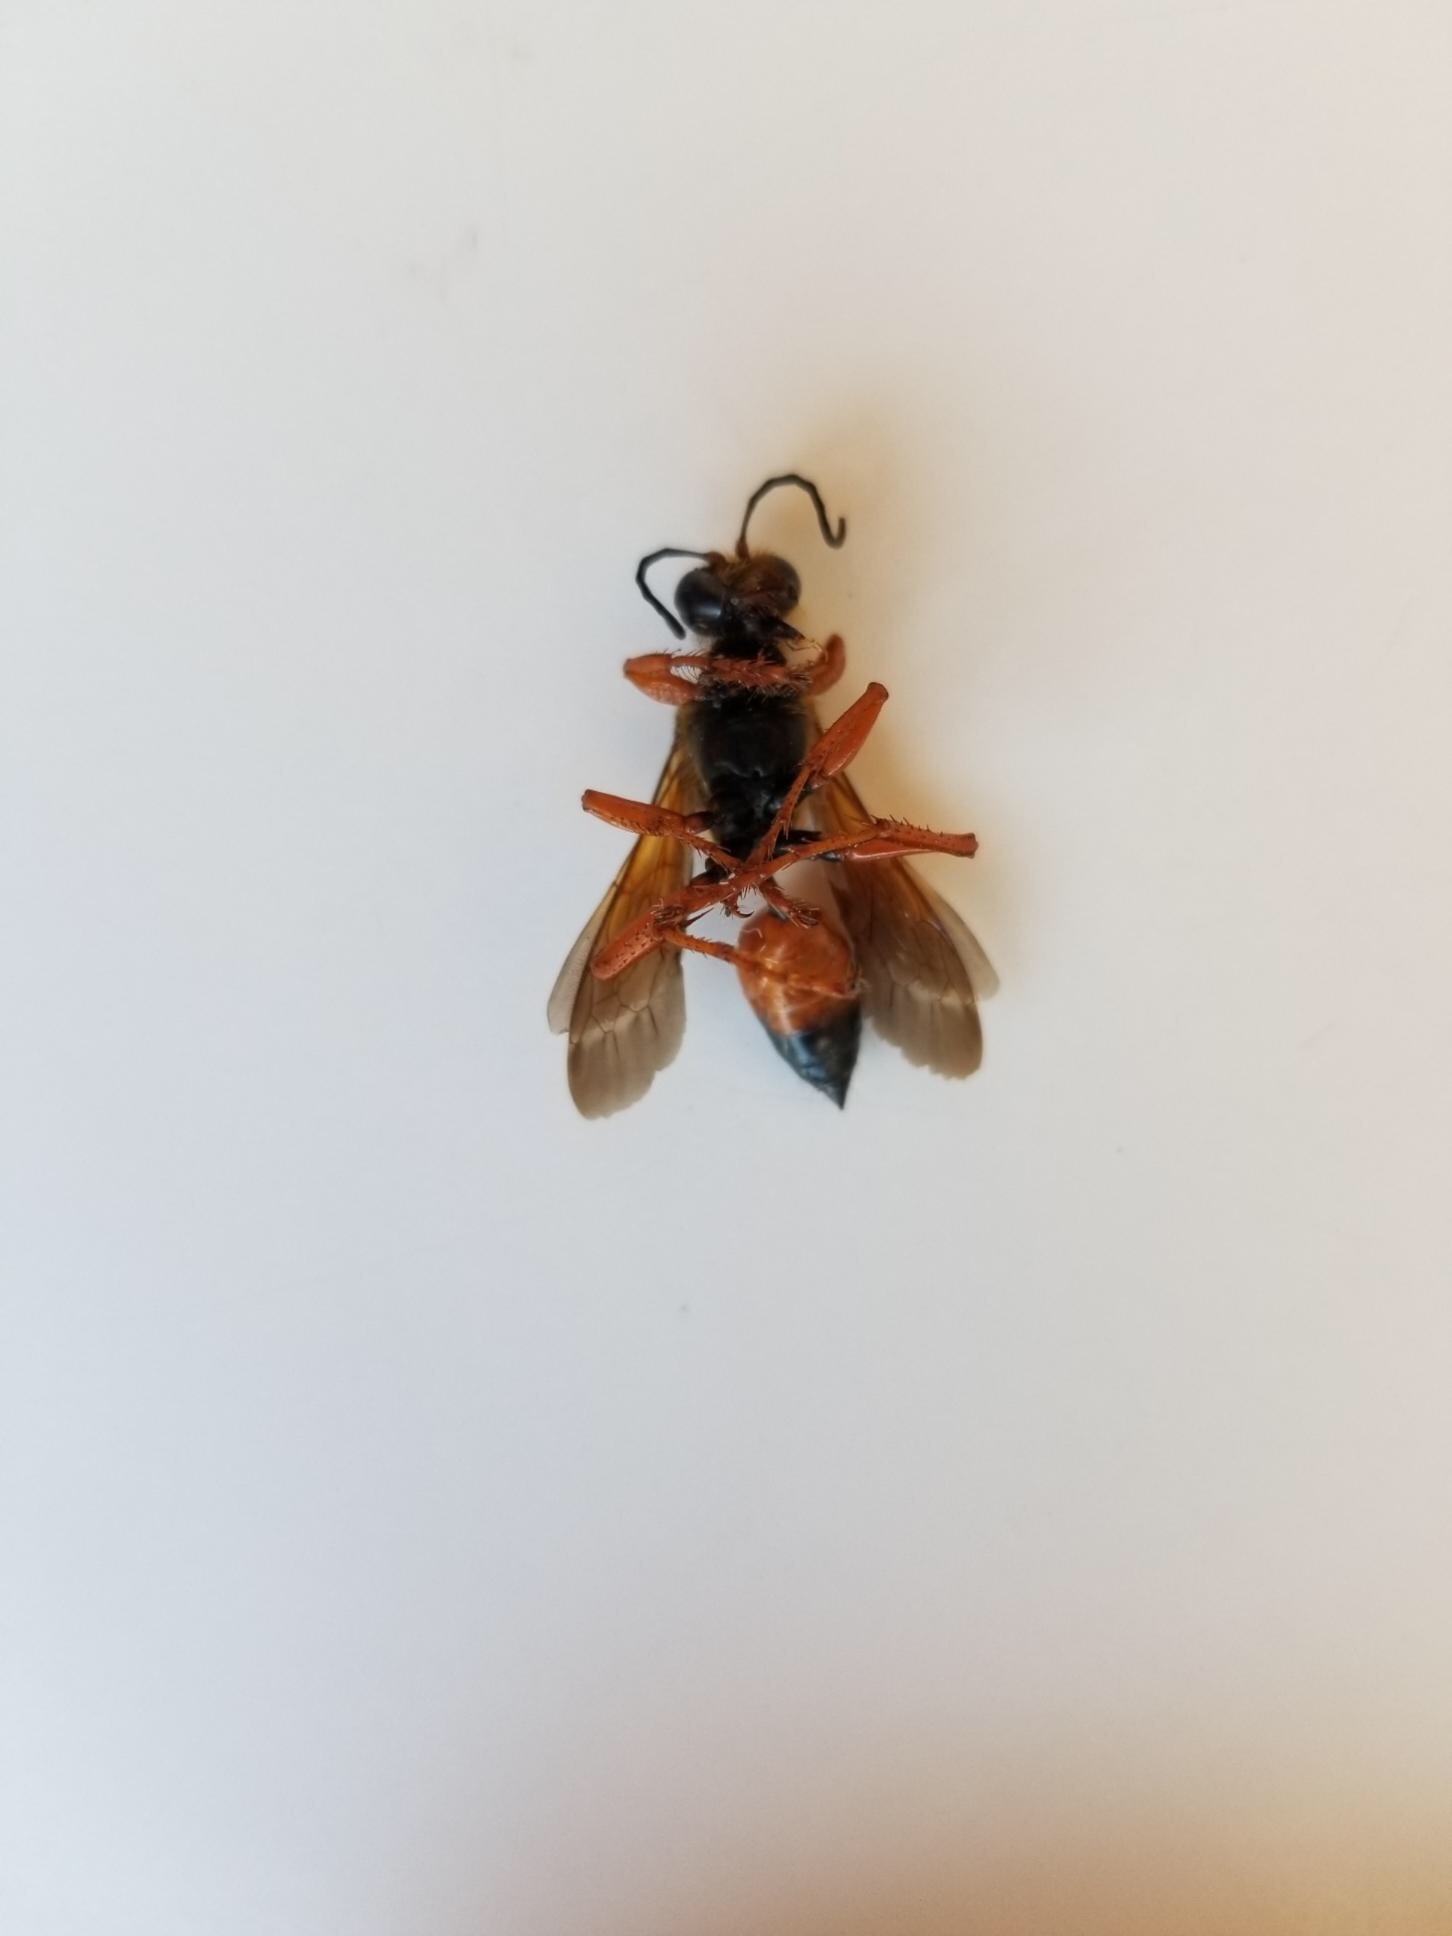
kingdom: Animalia
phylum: Arthropoda
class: Insecta
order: Hymenoptera
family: Sphecidae
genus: Sphex
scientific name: Sphex ichneumoneus
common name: Great golden digger wasp
